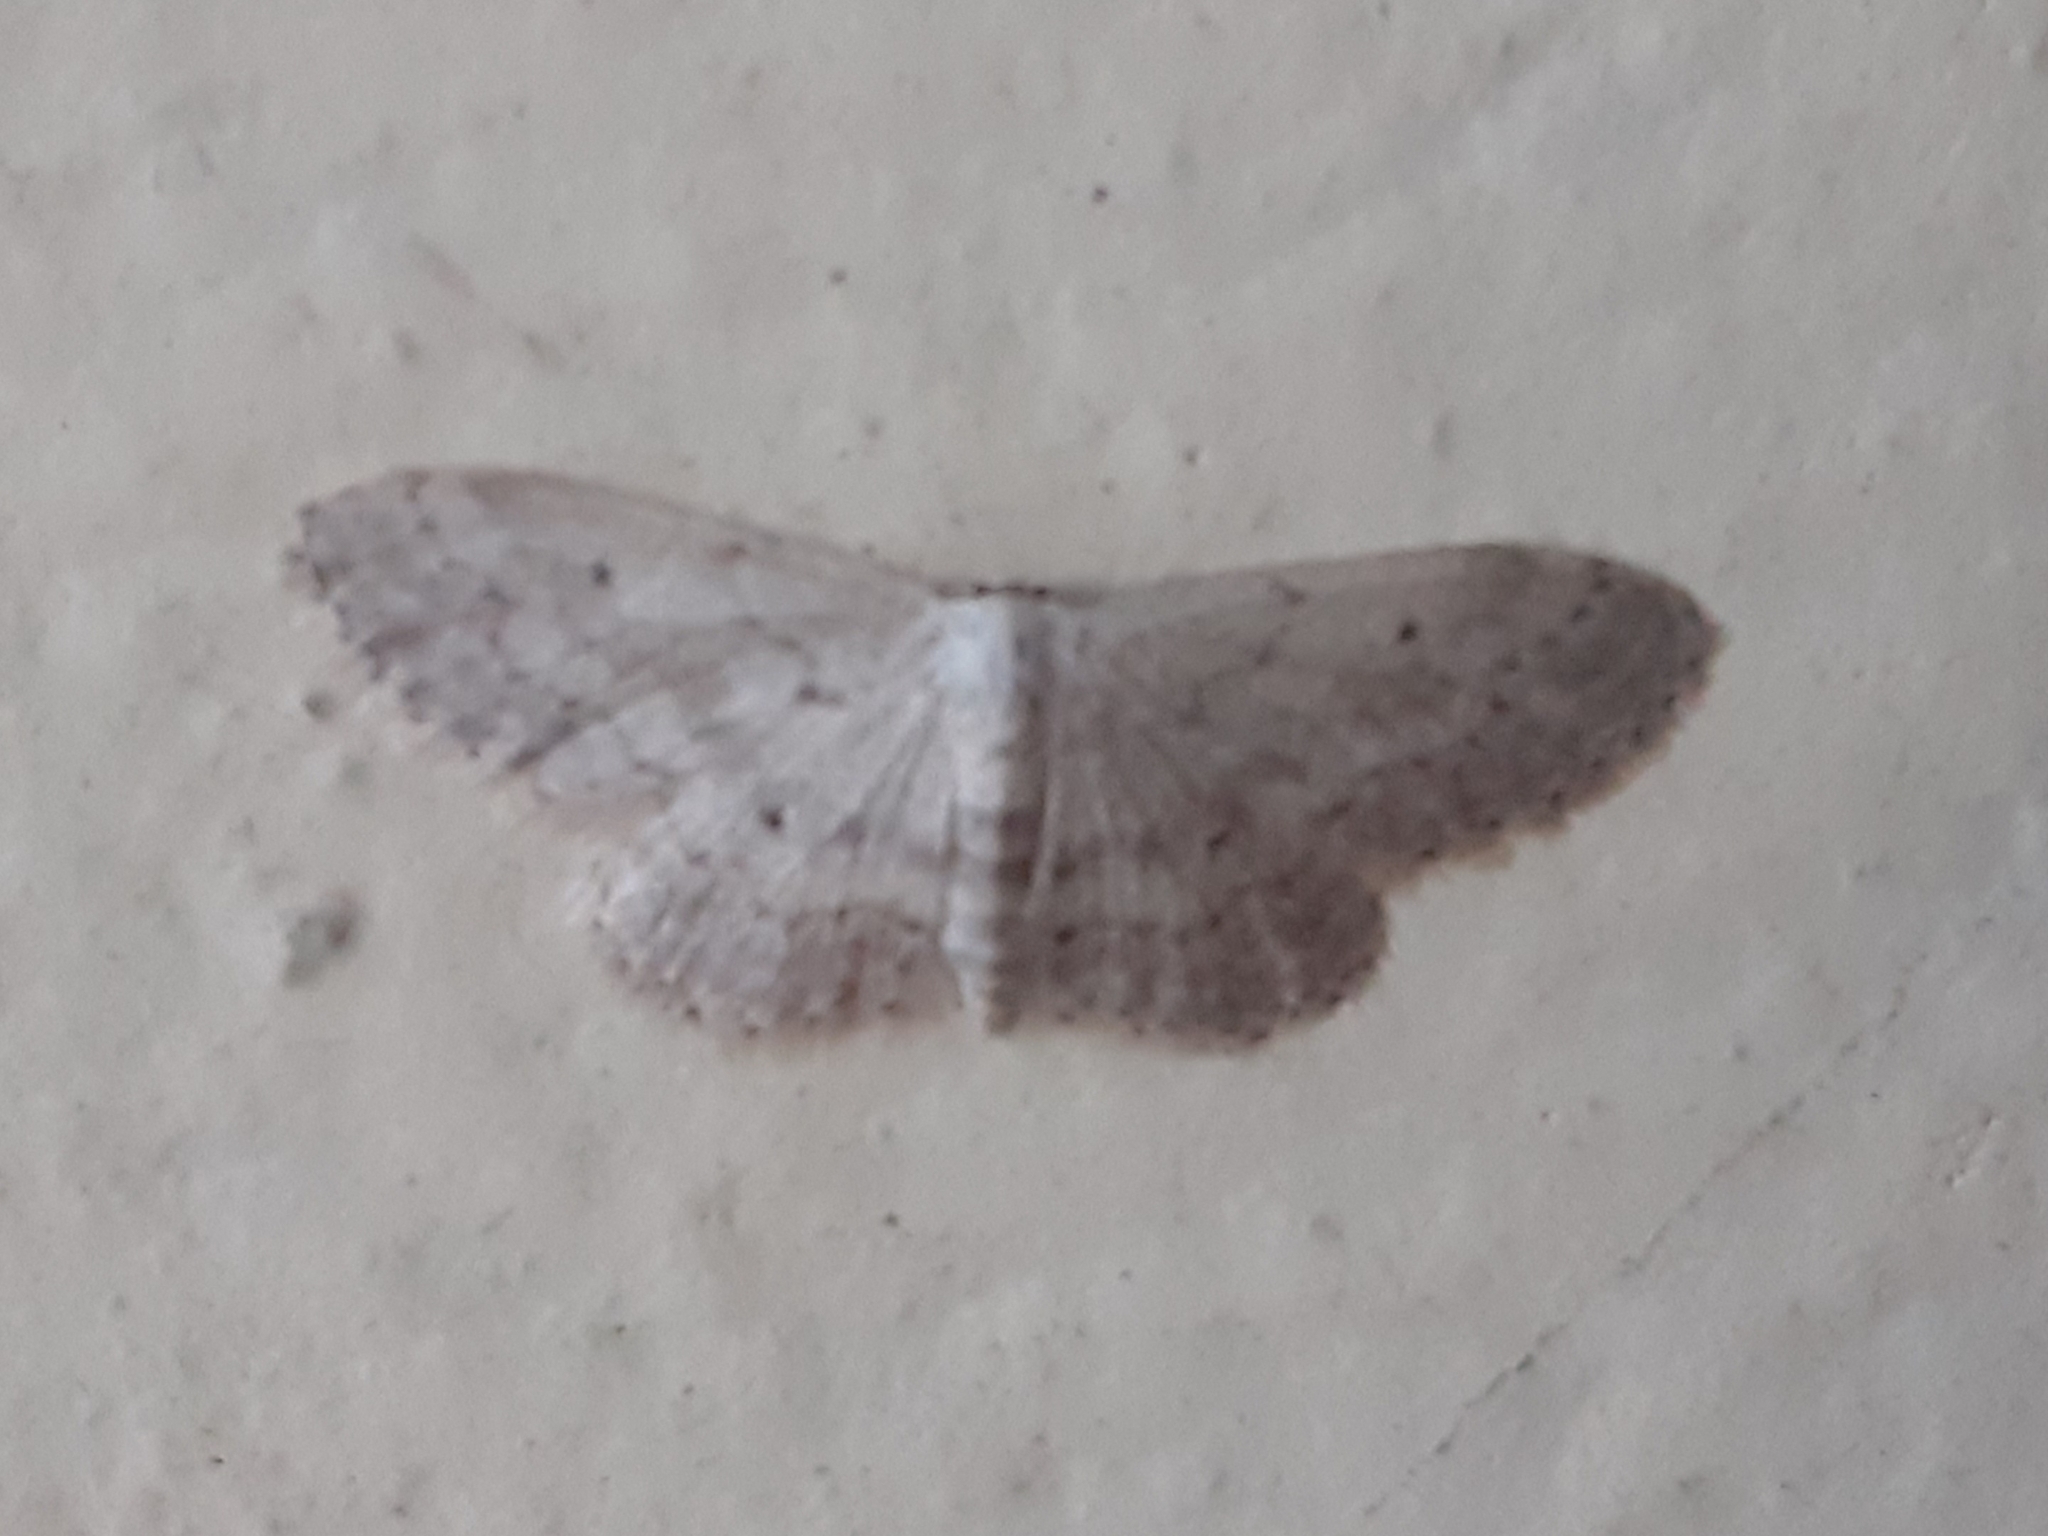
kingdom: Animalia
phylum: Arthropoda
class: Insecta
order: Lepidoptera
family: Geometridae
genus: Idaea
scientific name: Idaea seriata
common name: Small dusty wave
